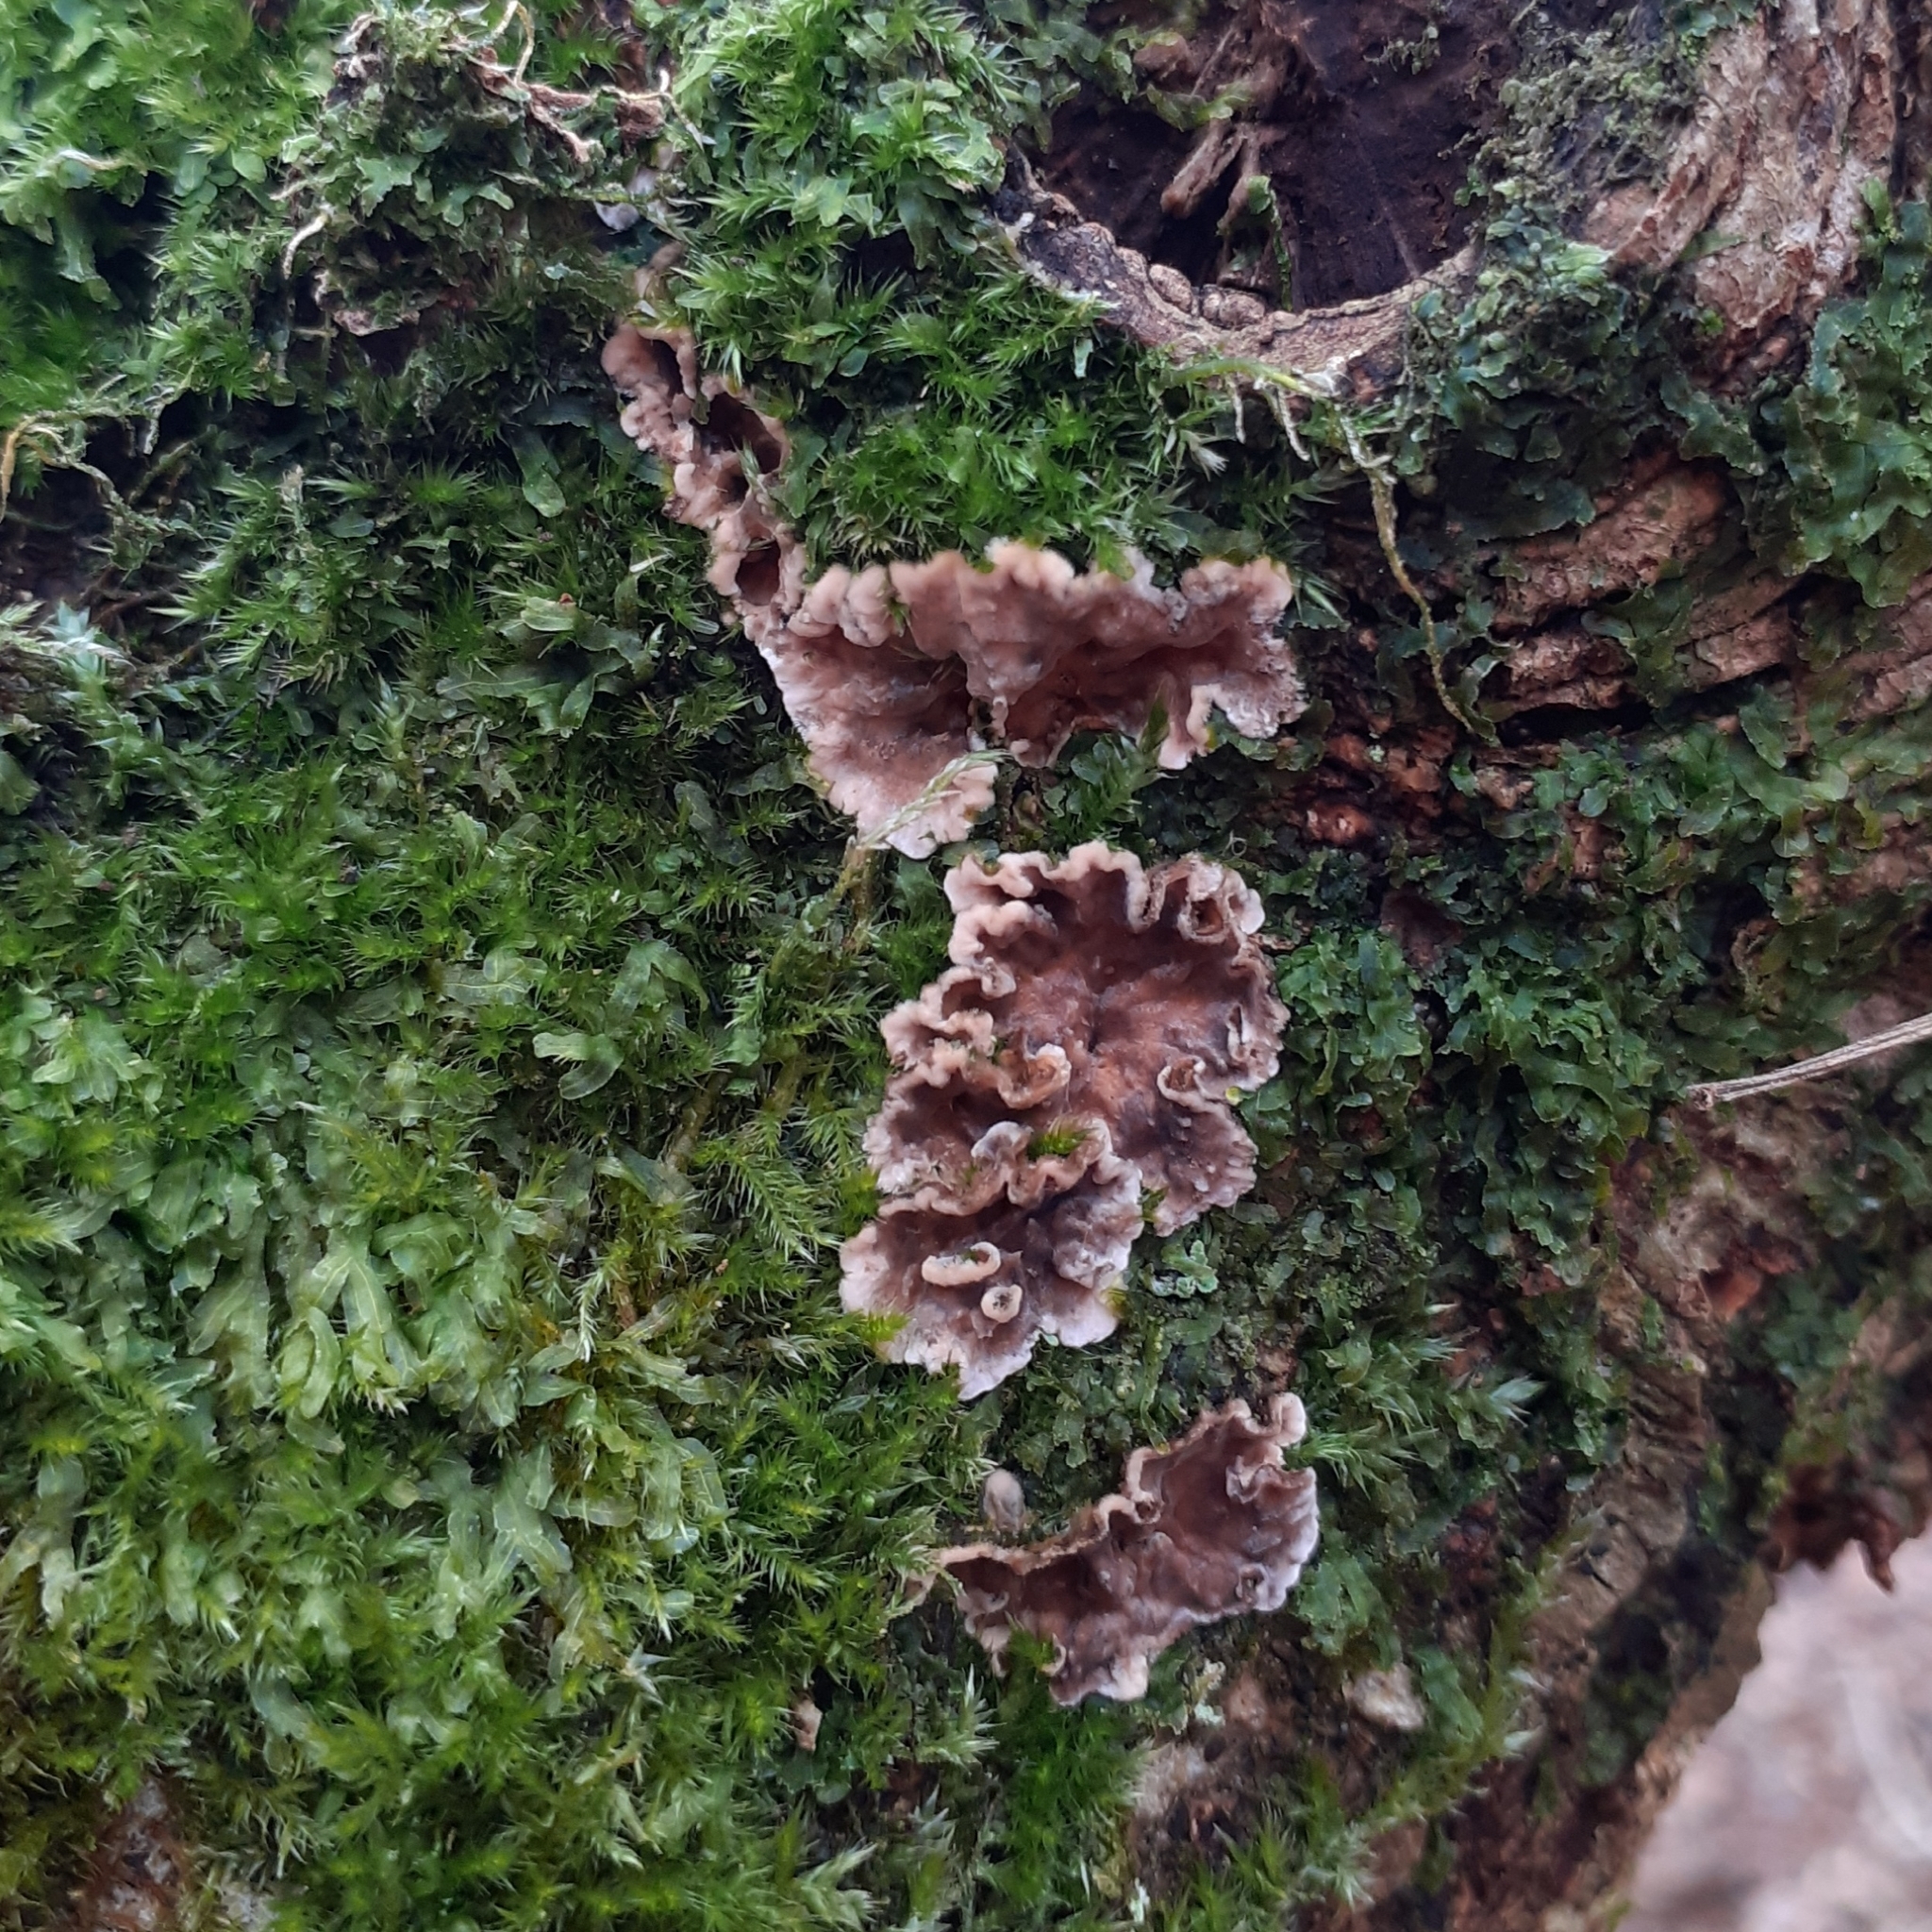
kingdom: Fungi
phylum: Basidiomycota
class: Agaricomycetes
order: Agaricales
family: Cyphellaceae
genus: Chondrostereum
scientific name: Chondrostereum purpureum
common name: Silver leaf disease
